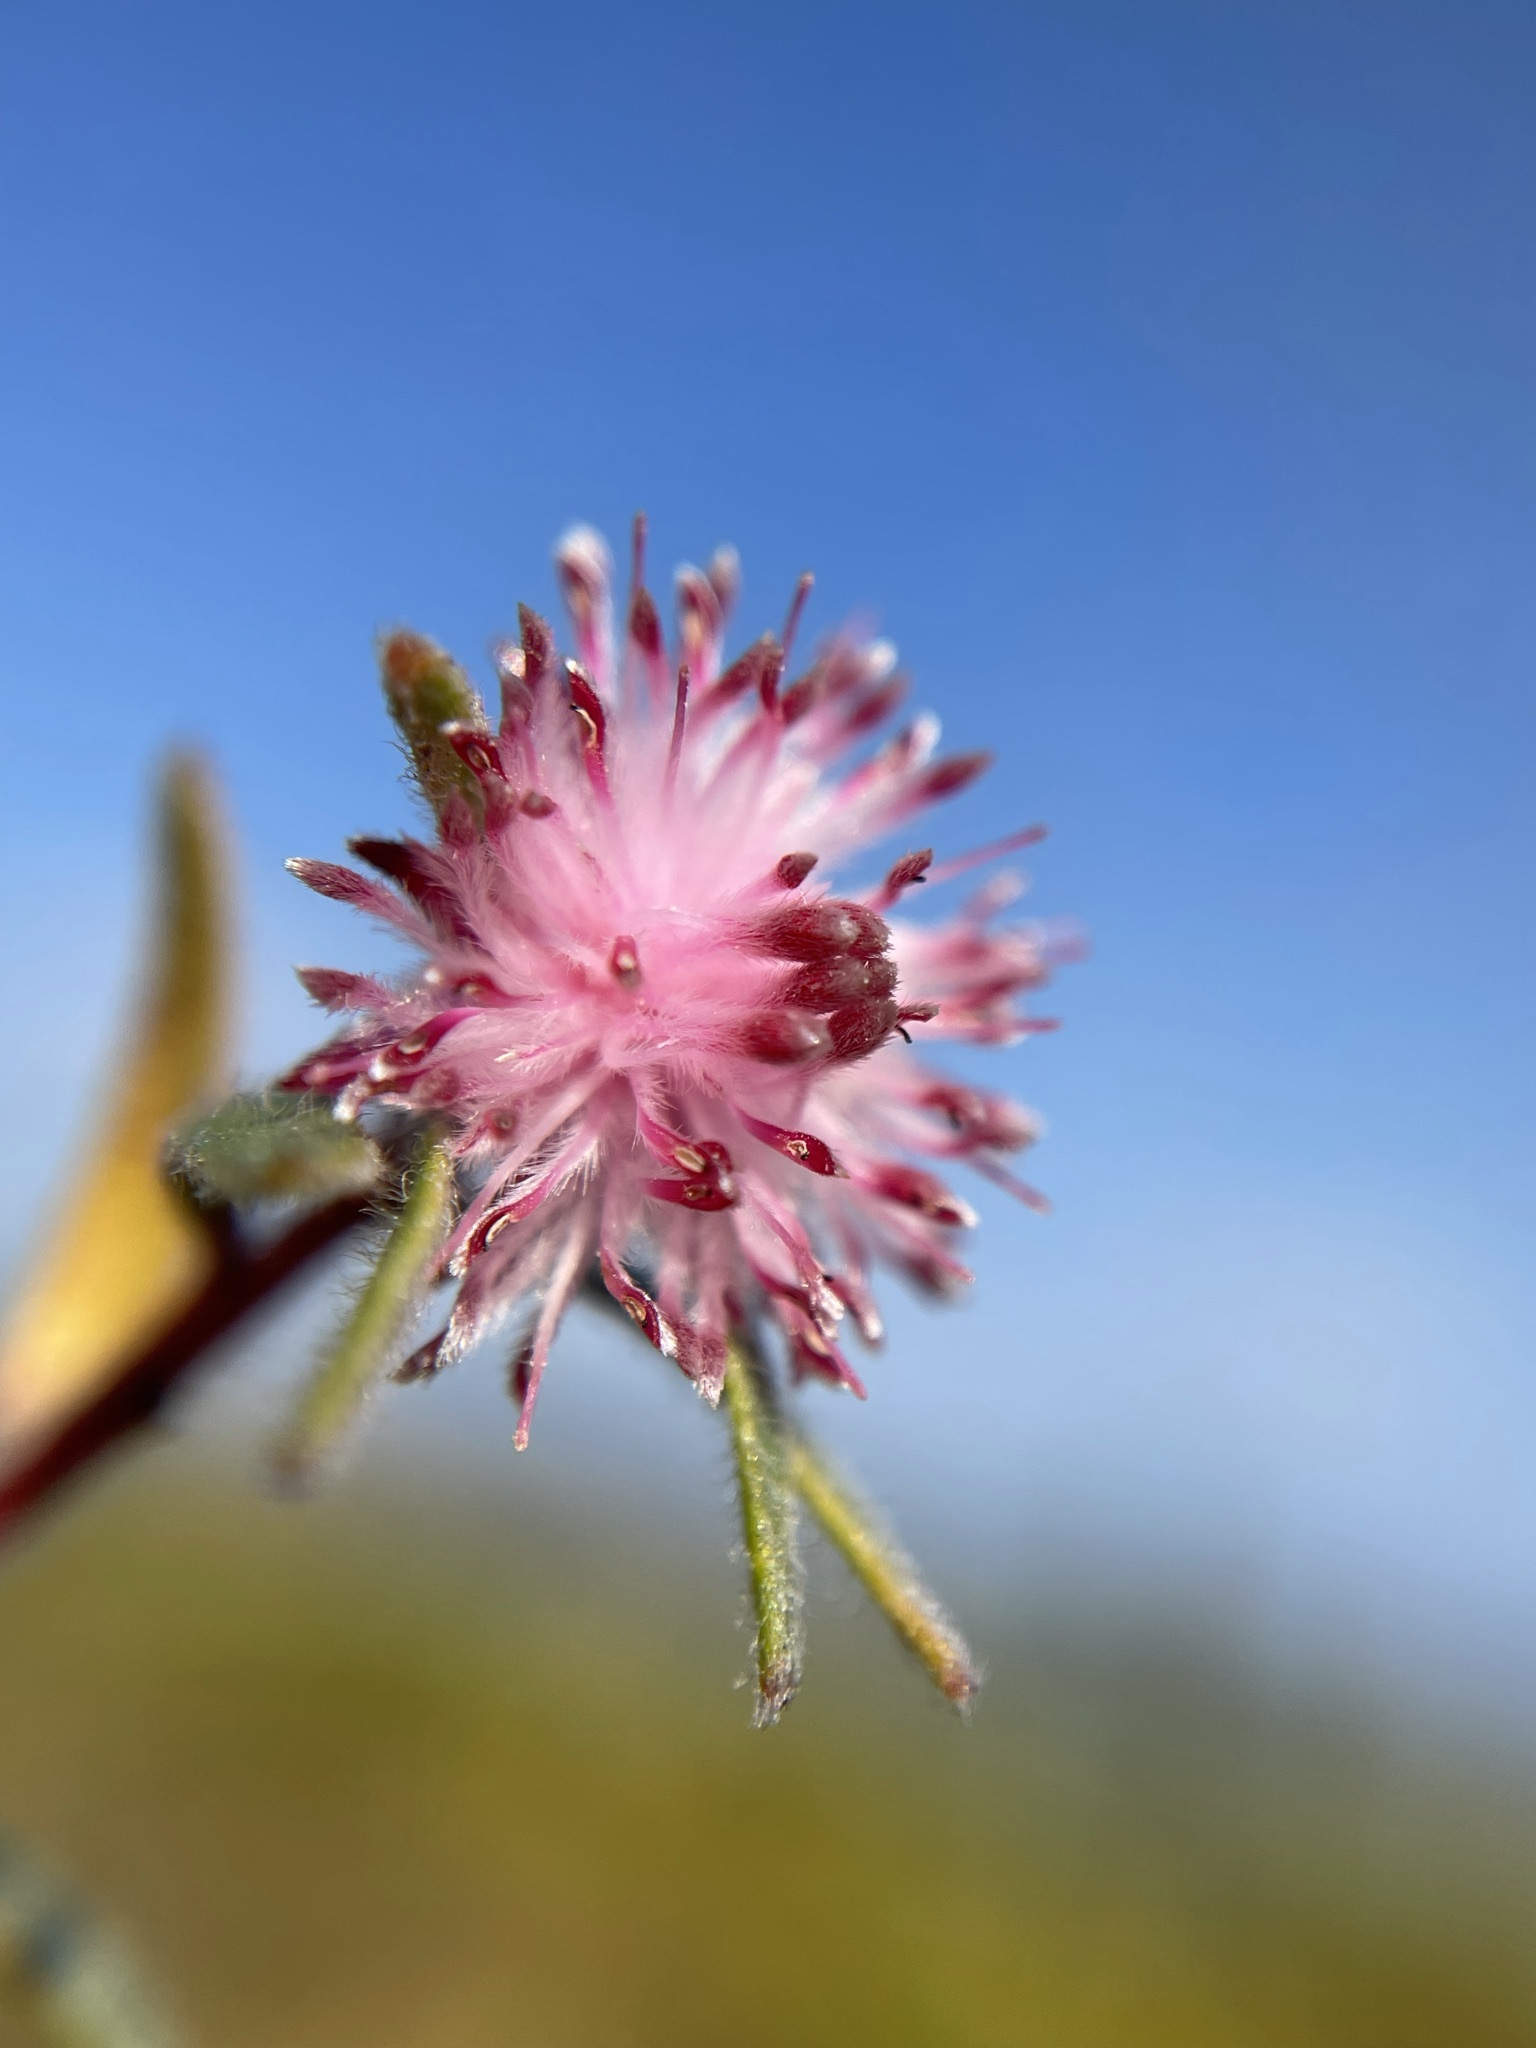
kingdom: Plantae
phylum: Tracheophyta
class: Magnoliopsida
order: Proteales
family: Proteaceae
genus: Diastella
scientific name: Diastella divaricata
